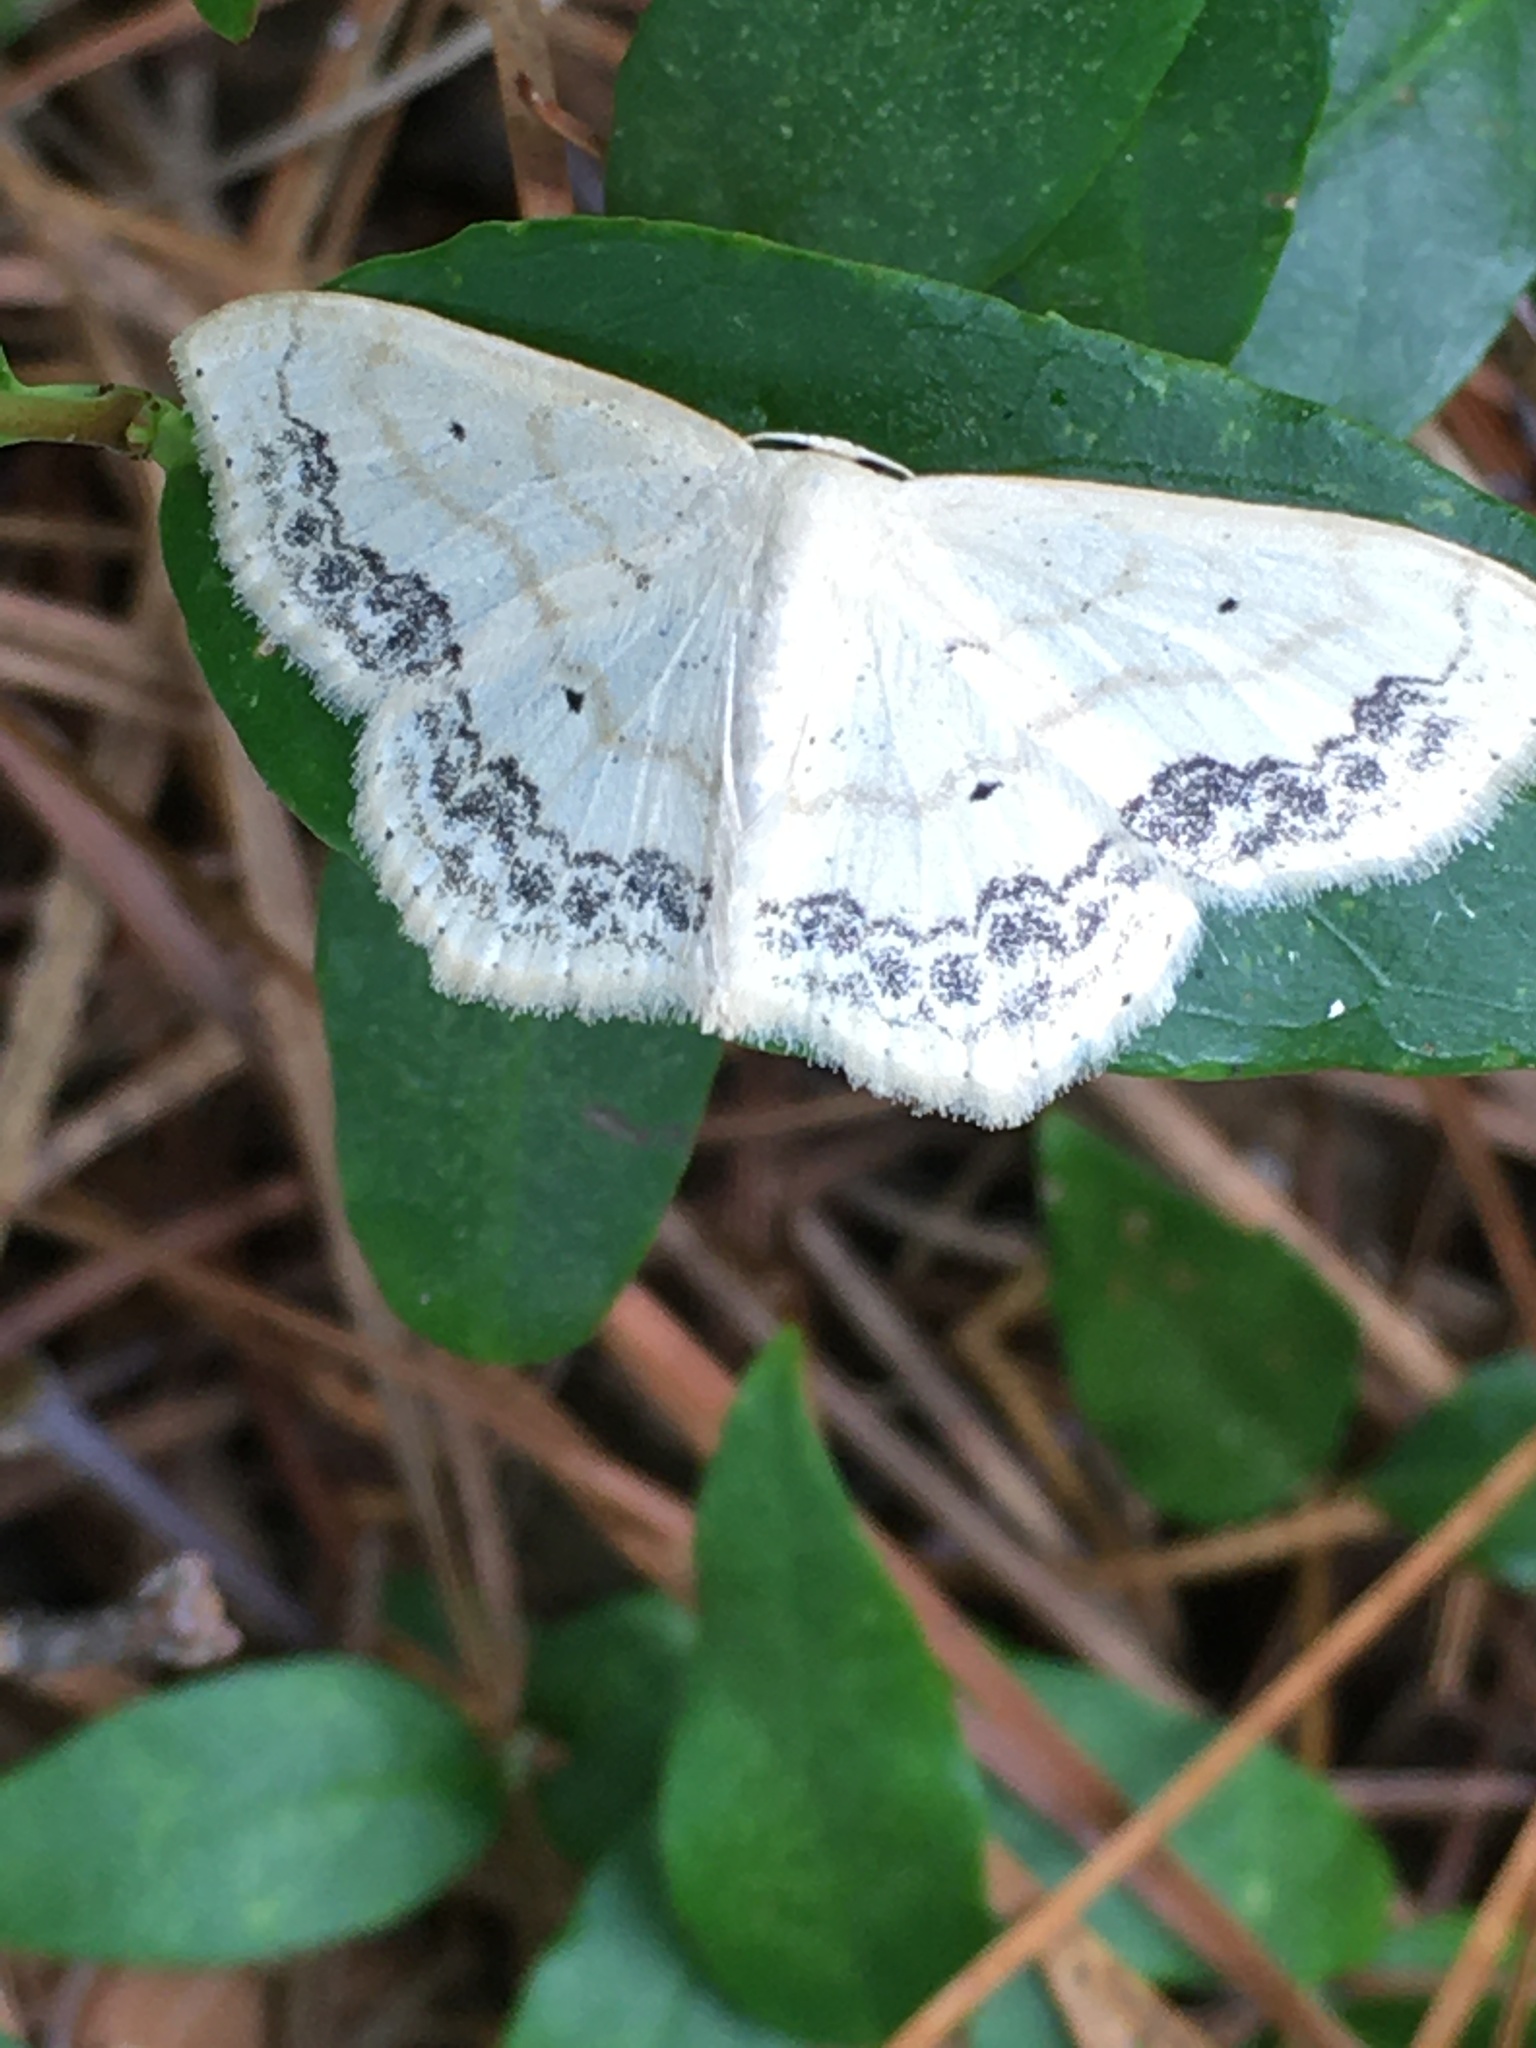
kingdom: Animalia
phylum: Arthropoda
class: Insecta
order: Lepidoptera
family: Geometridae
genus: Scopula
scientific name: Scopula limboundata
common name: Large lace border
